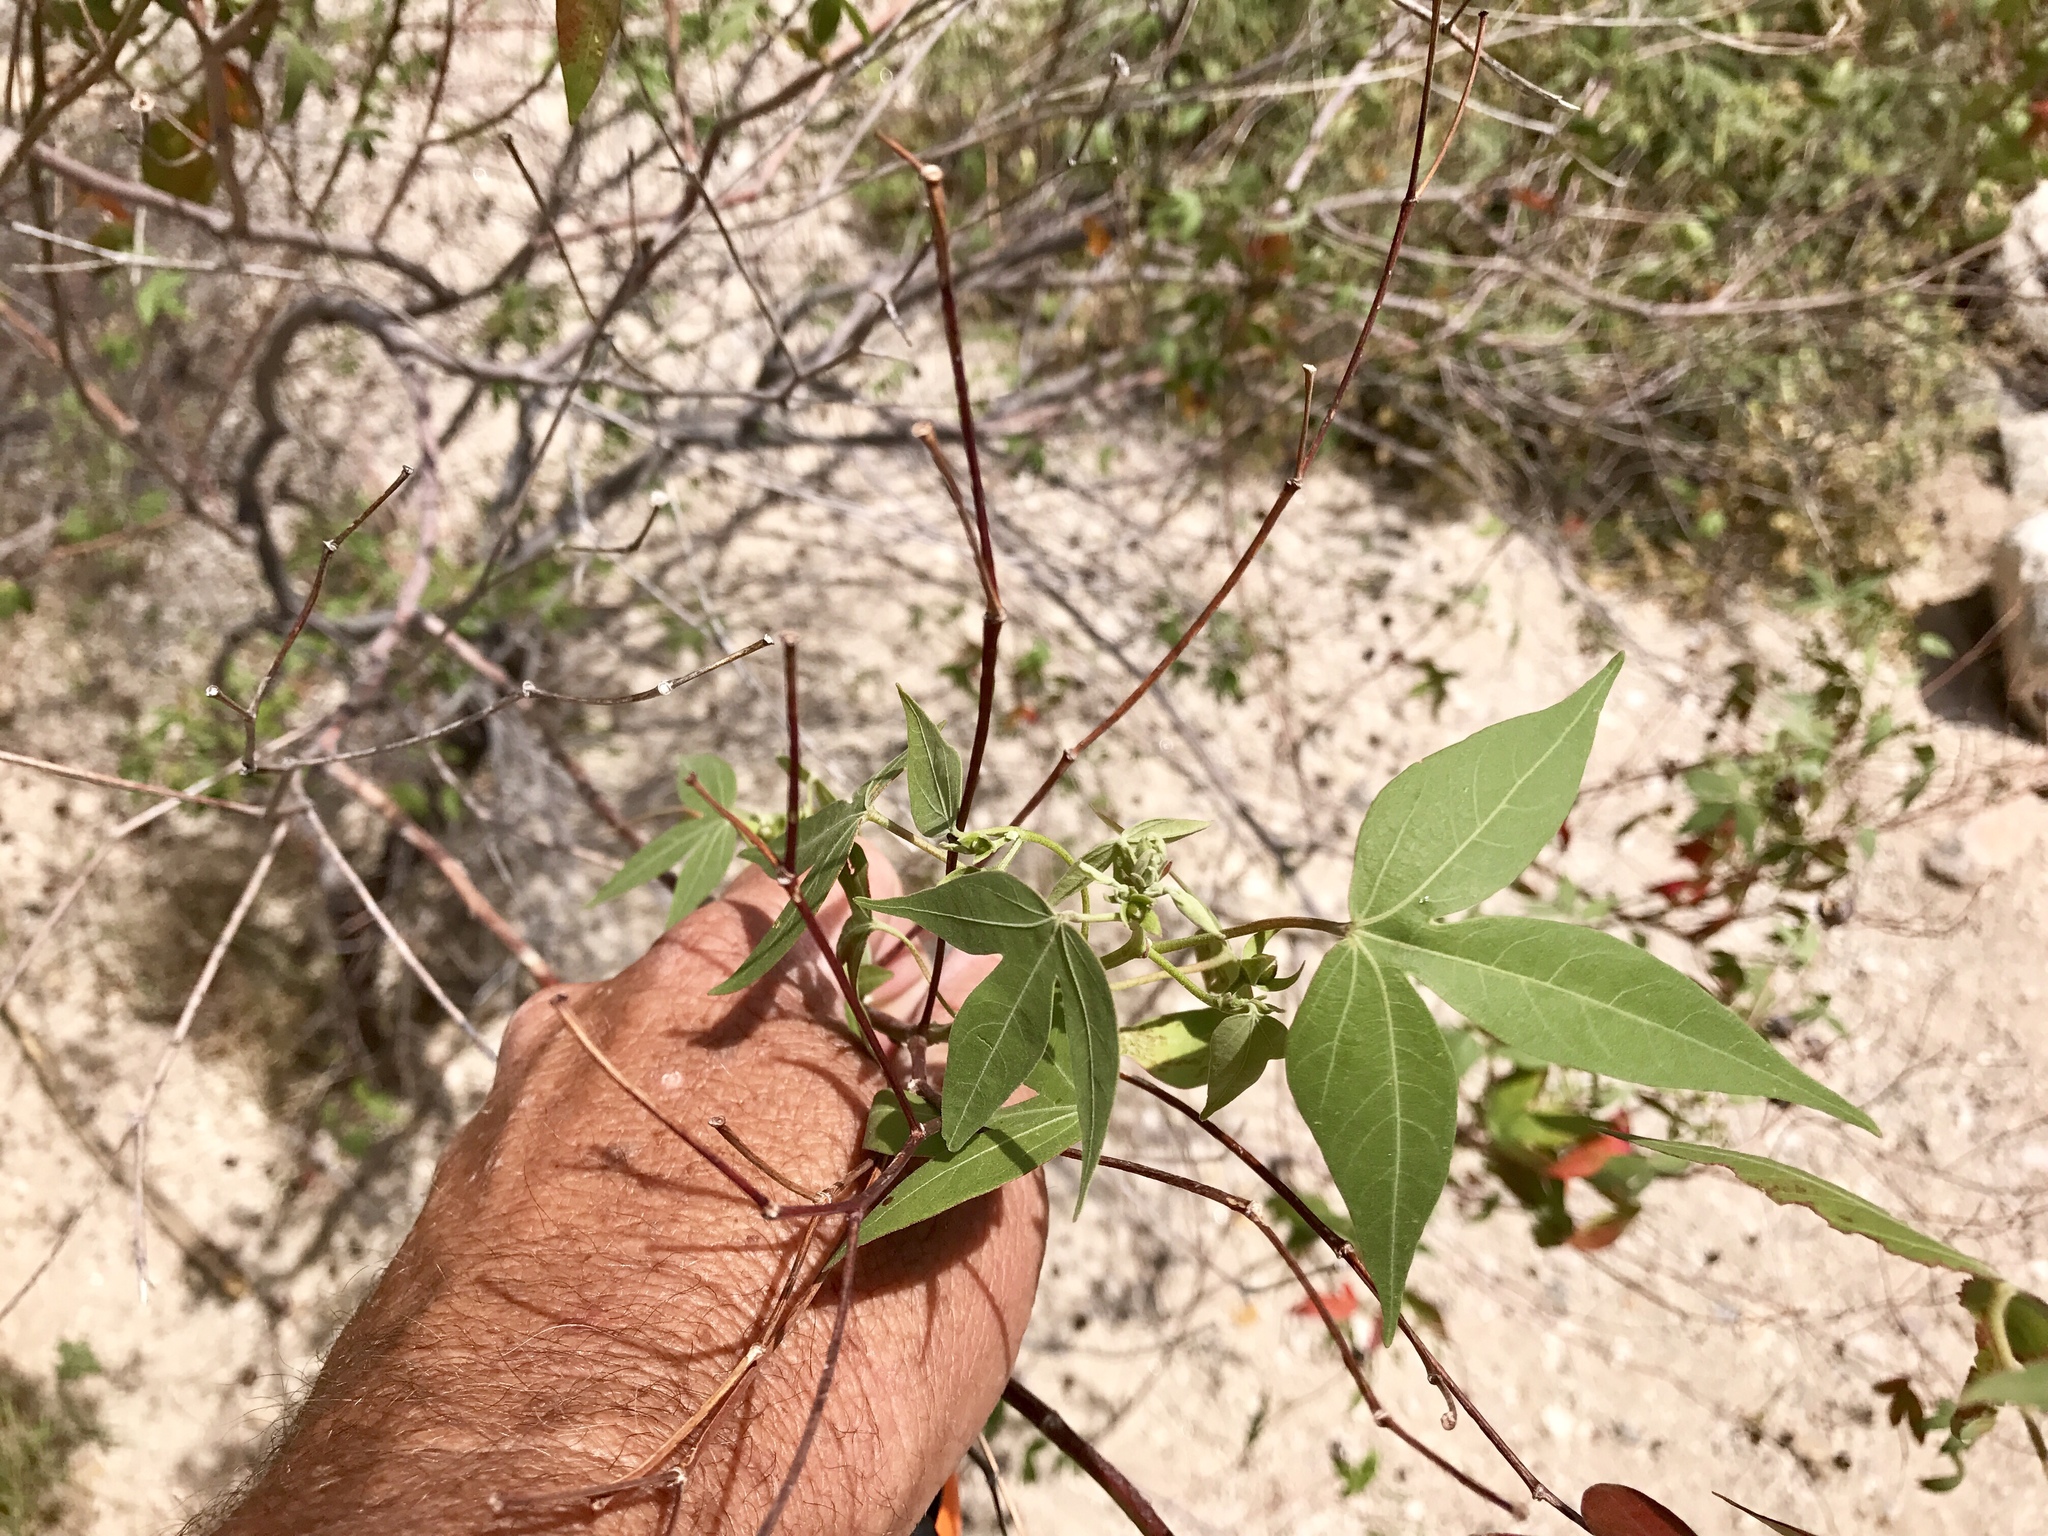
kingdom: Plantae
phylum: Tracheophyta
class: Magnoliopsida
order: Malvales
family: Malvaceae
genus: Gossypium
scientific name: Gossypium thurberi
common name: Desert cotton
